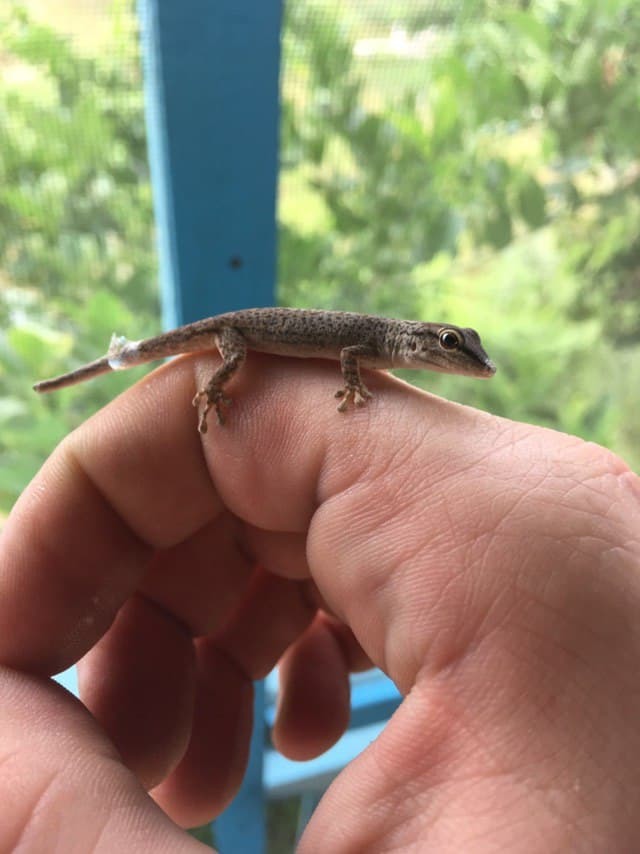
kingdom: Animalia
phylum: Chordata
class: Squamata
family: Gekkonidae
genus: Phelsuma
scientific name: Phelsuma mutabilis
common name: Thick tail gecko
